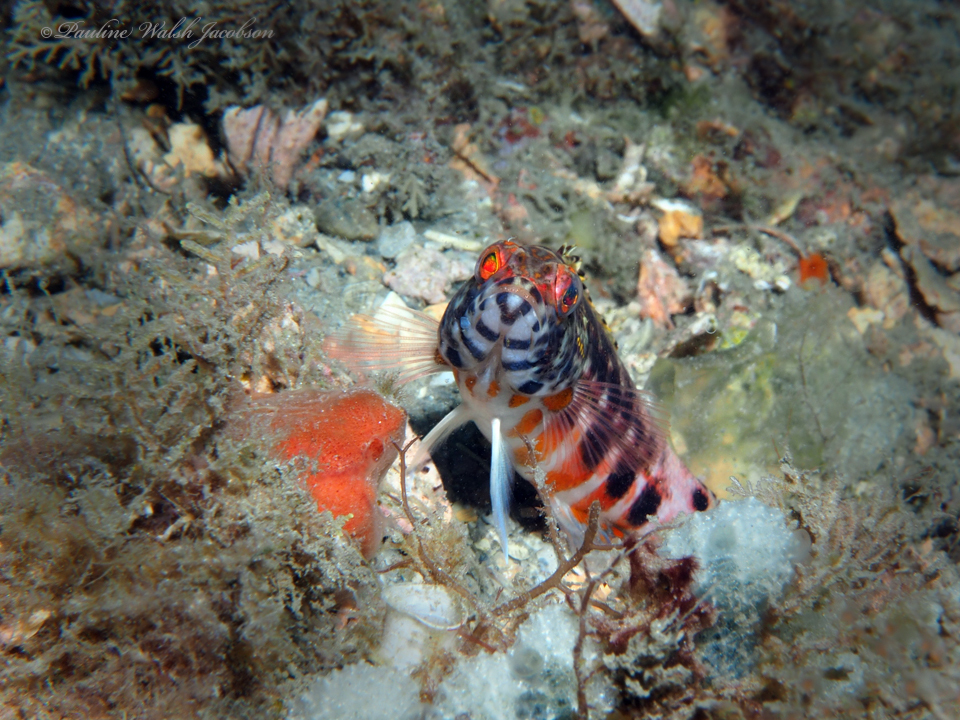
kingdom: Animalia
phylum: Chordata
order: Perciformes
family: Serranidae
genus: Serranus
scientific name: Serranus baldwini
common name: Lantern bass
